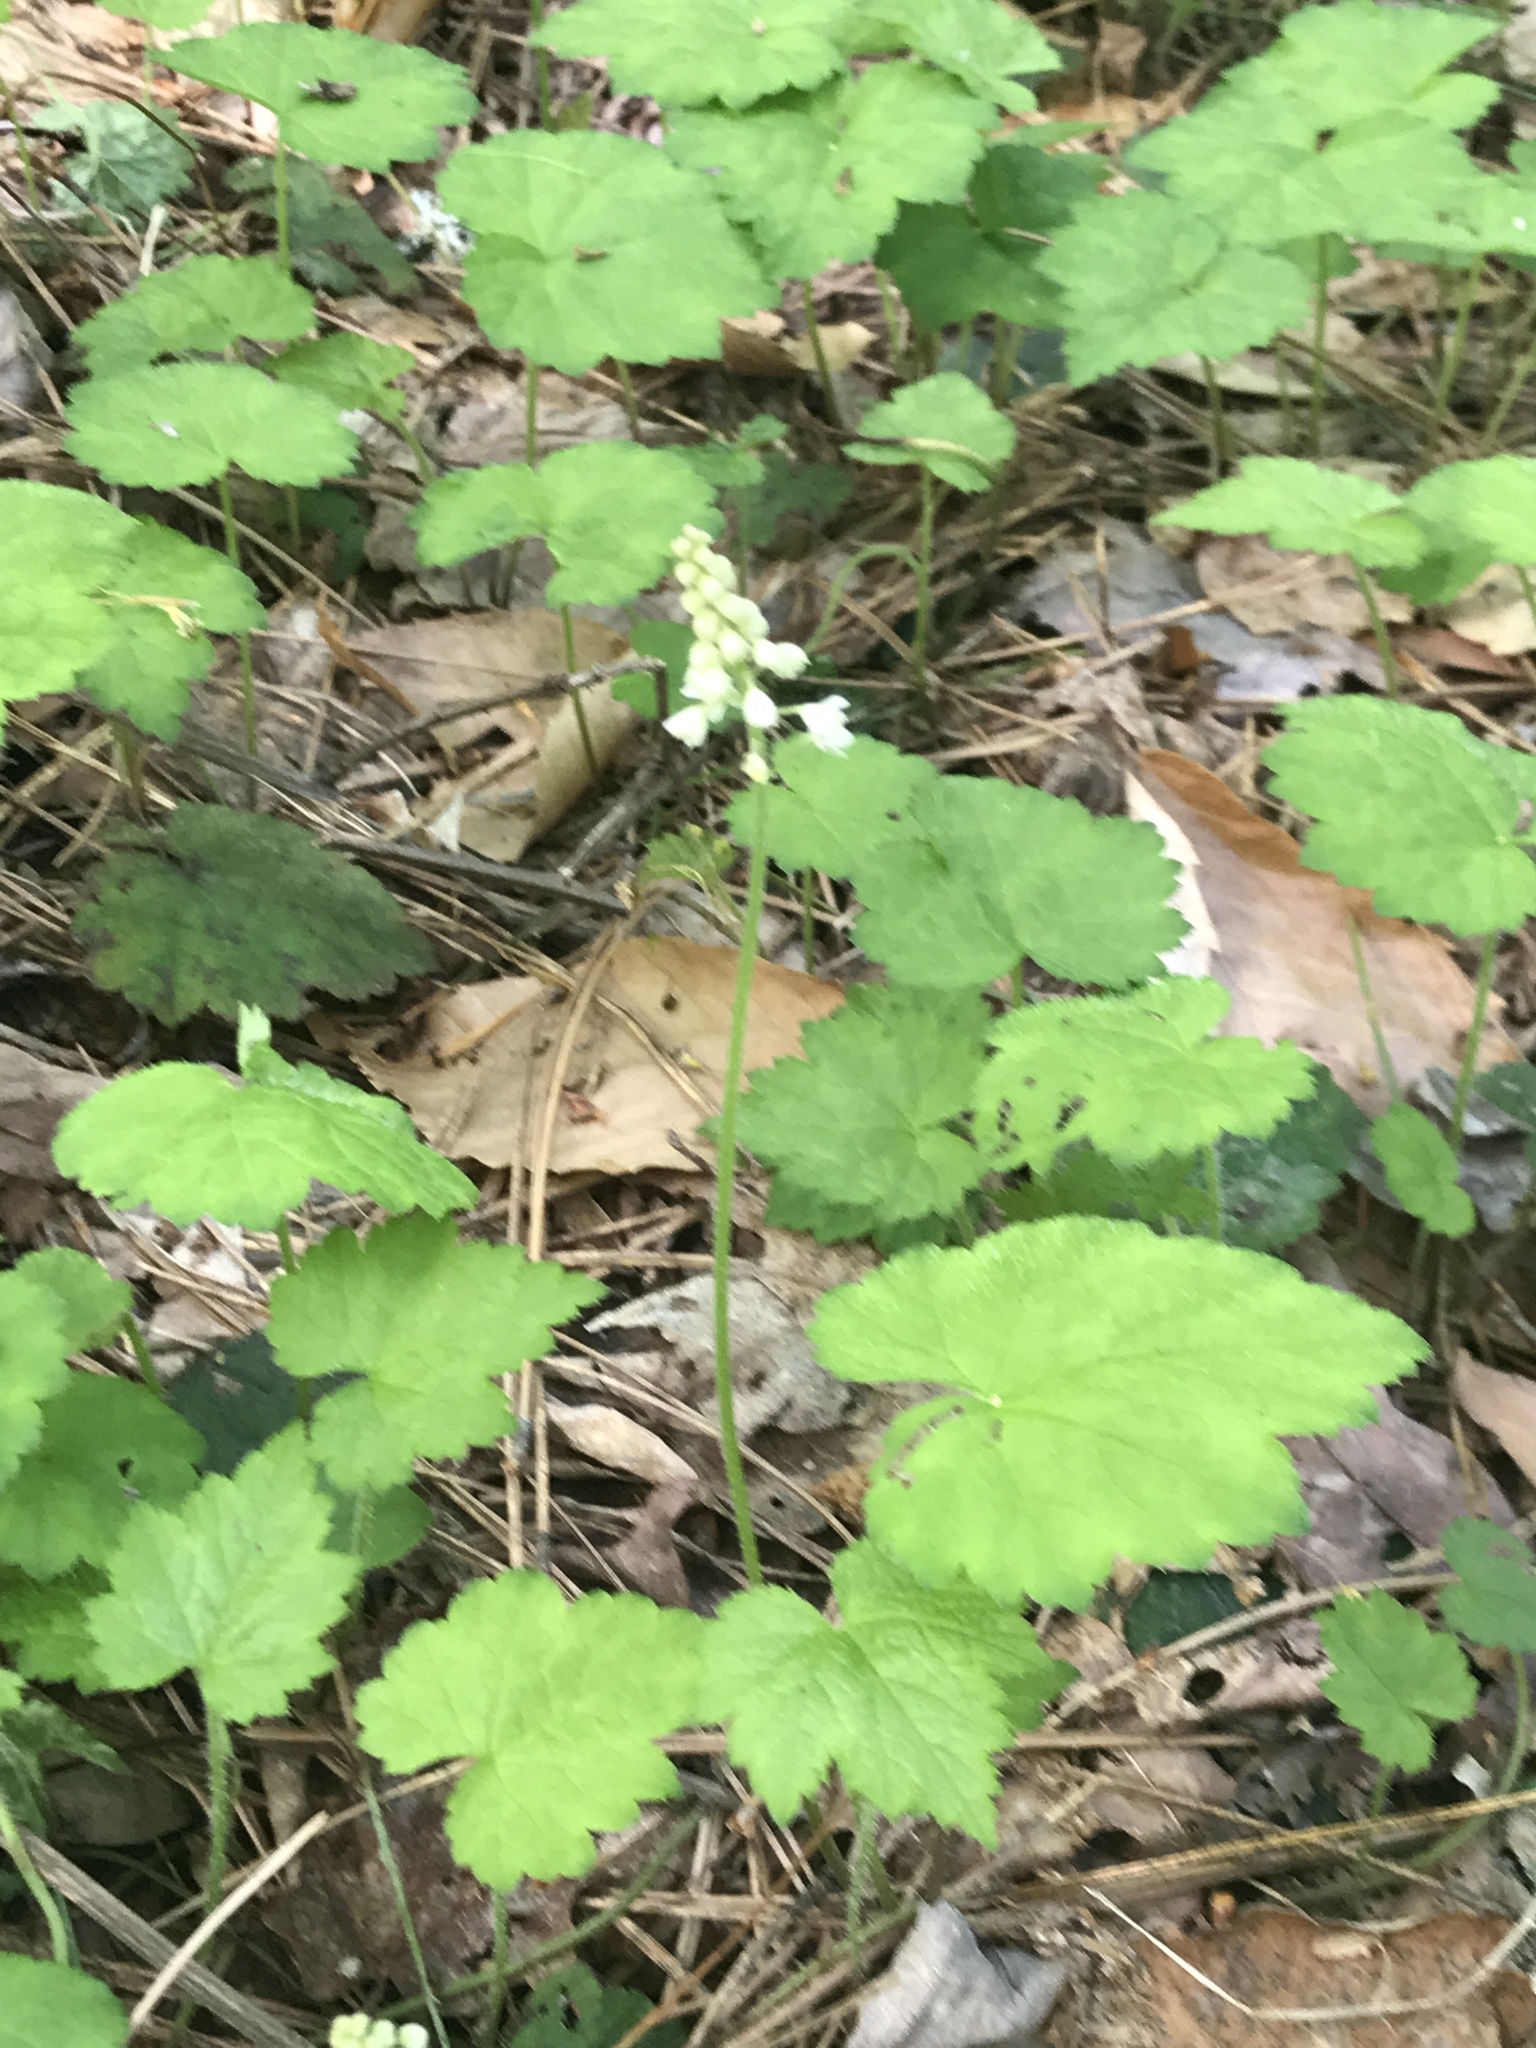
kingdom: Plantae
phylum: Tracheophyta
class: Magnoliopsida
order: Saxifragales
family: Saxifragaceae
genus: Tiarella
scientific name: Tiarella stolonifera
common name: Stoloniferous foamflower
